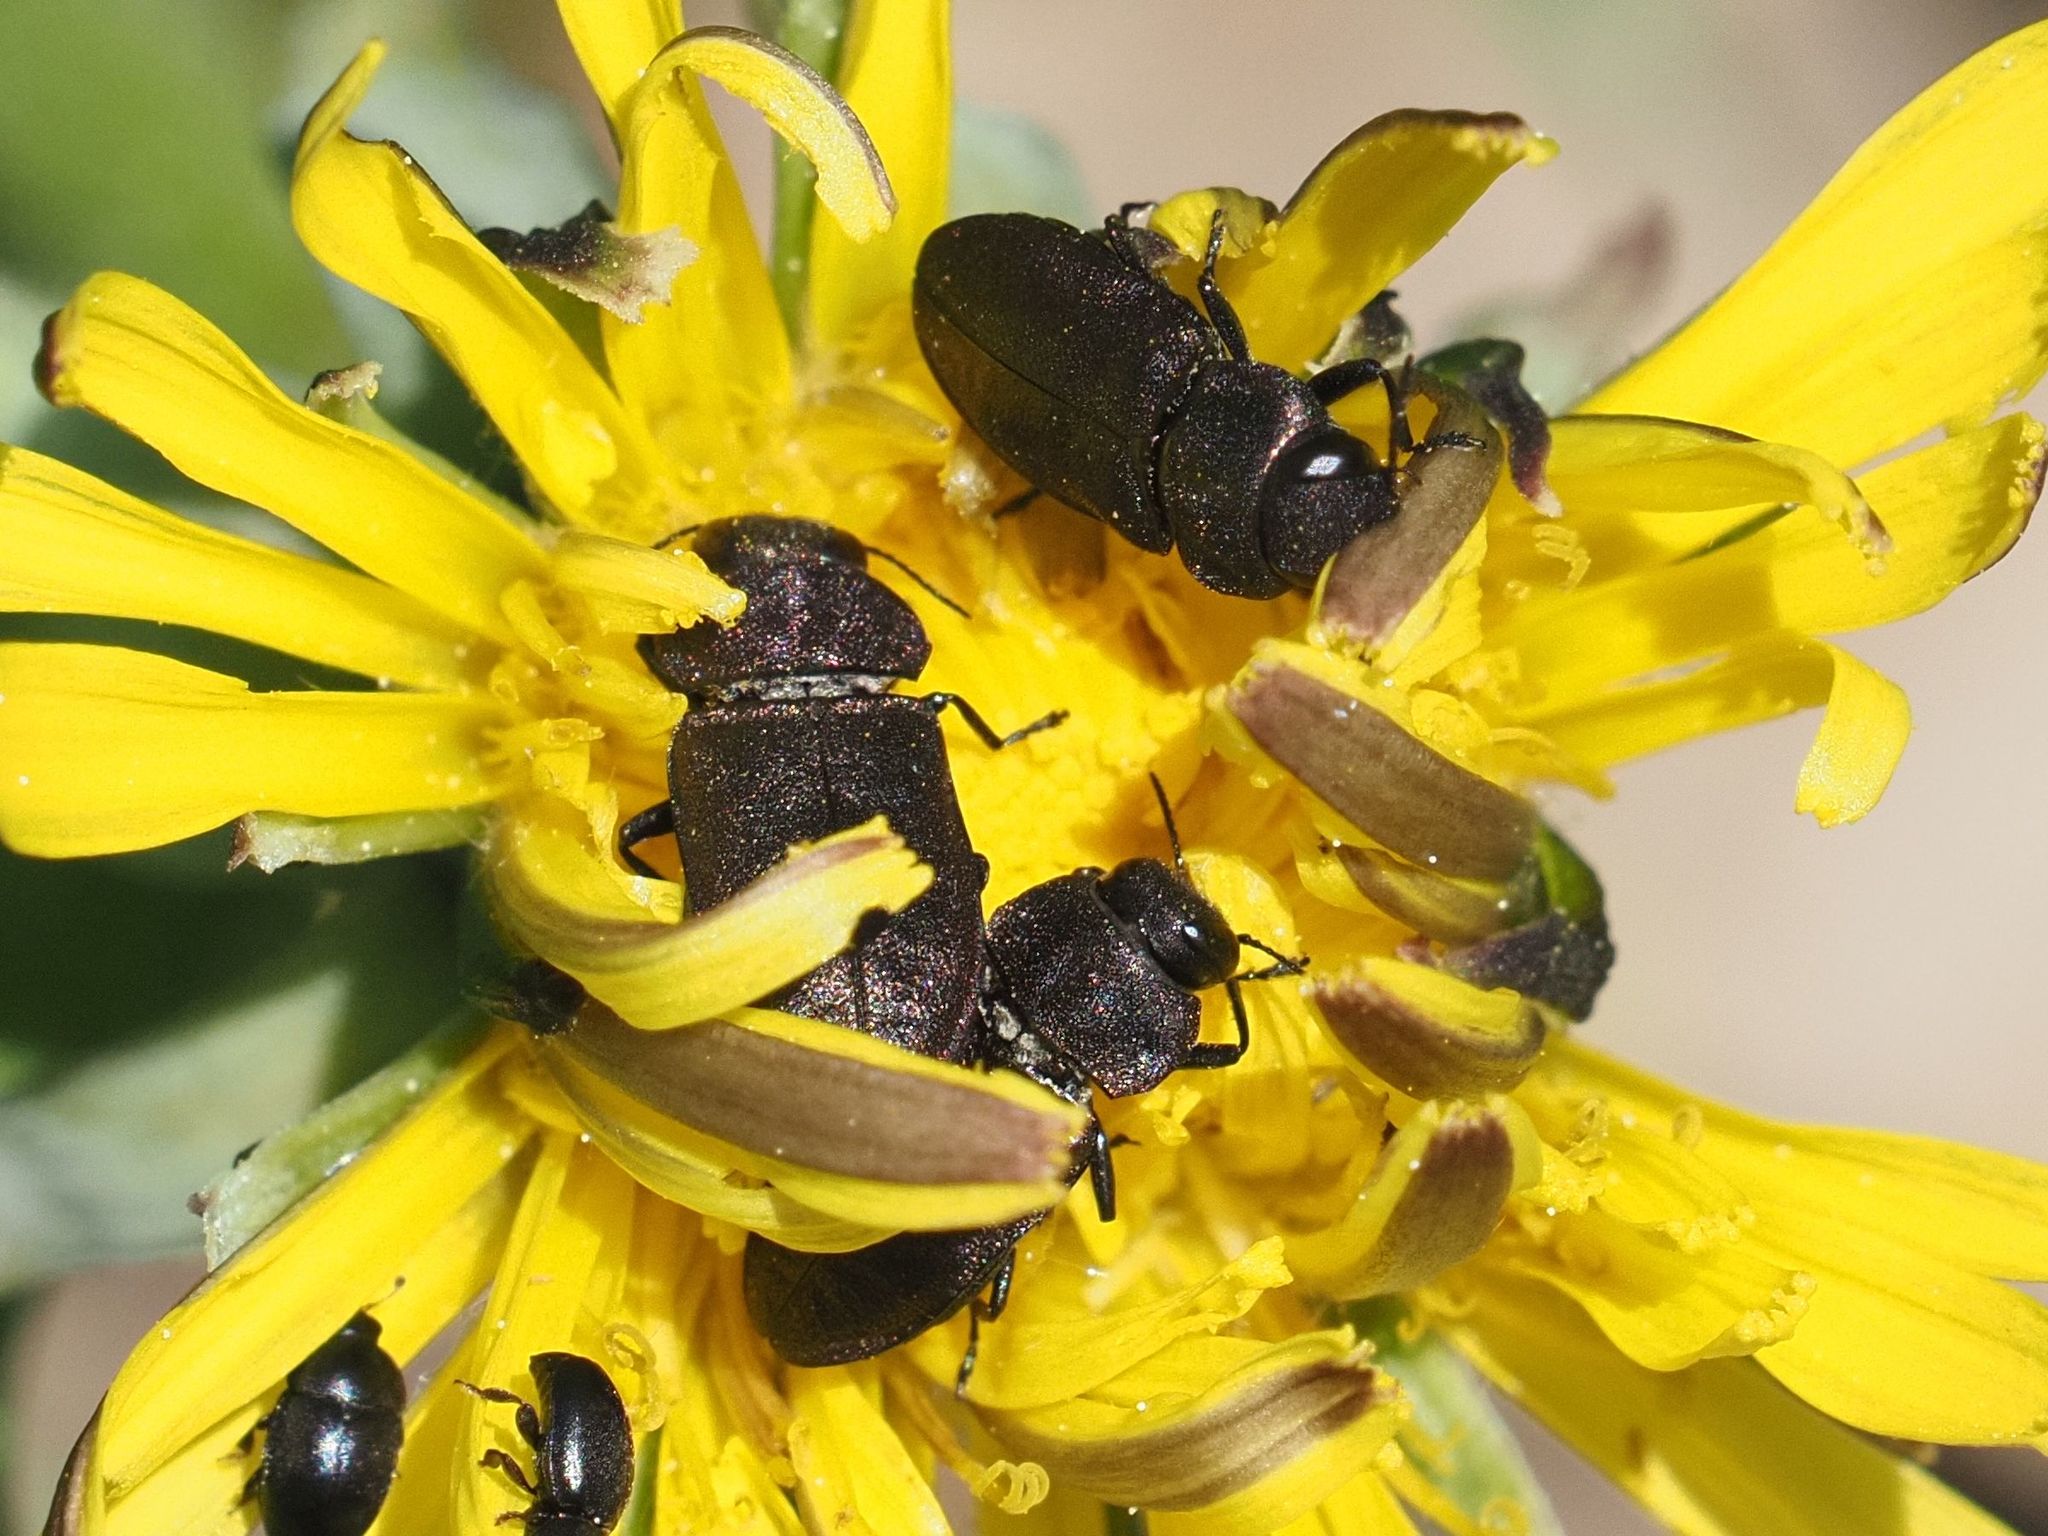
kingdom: Animalia
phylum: Arthropoda
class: Insecta
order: Coleoptera
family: Buprestidae
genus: Anthaxia
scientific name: Anthaxia helvetica
